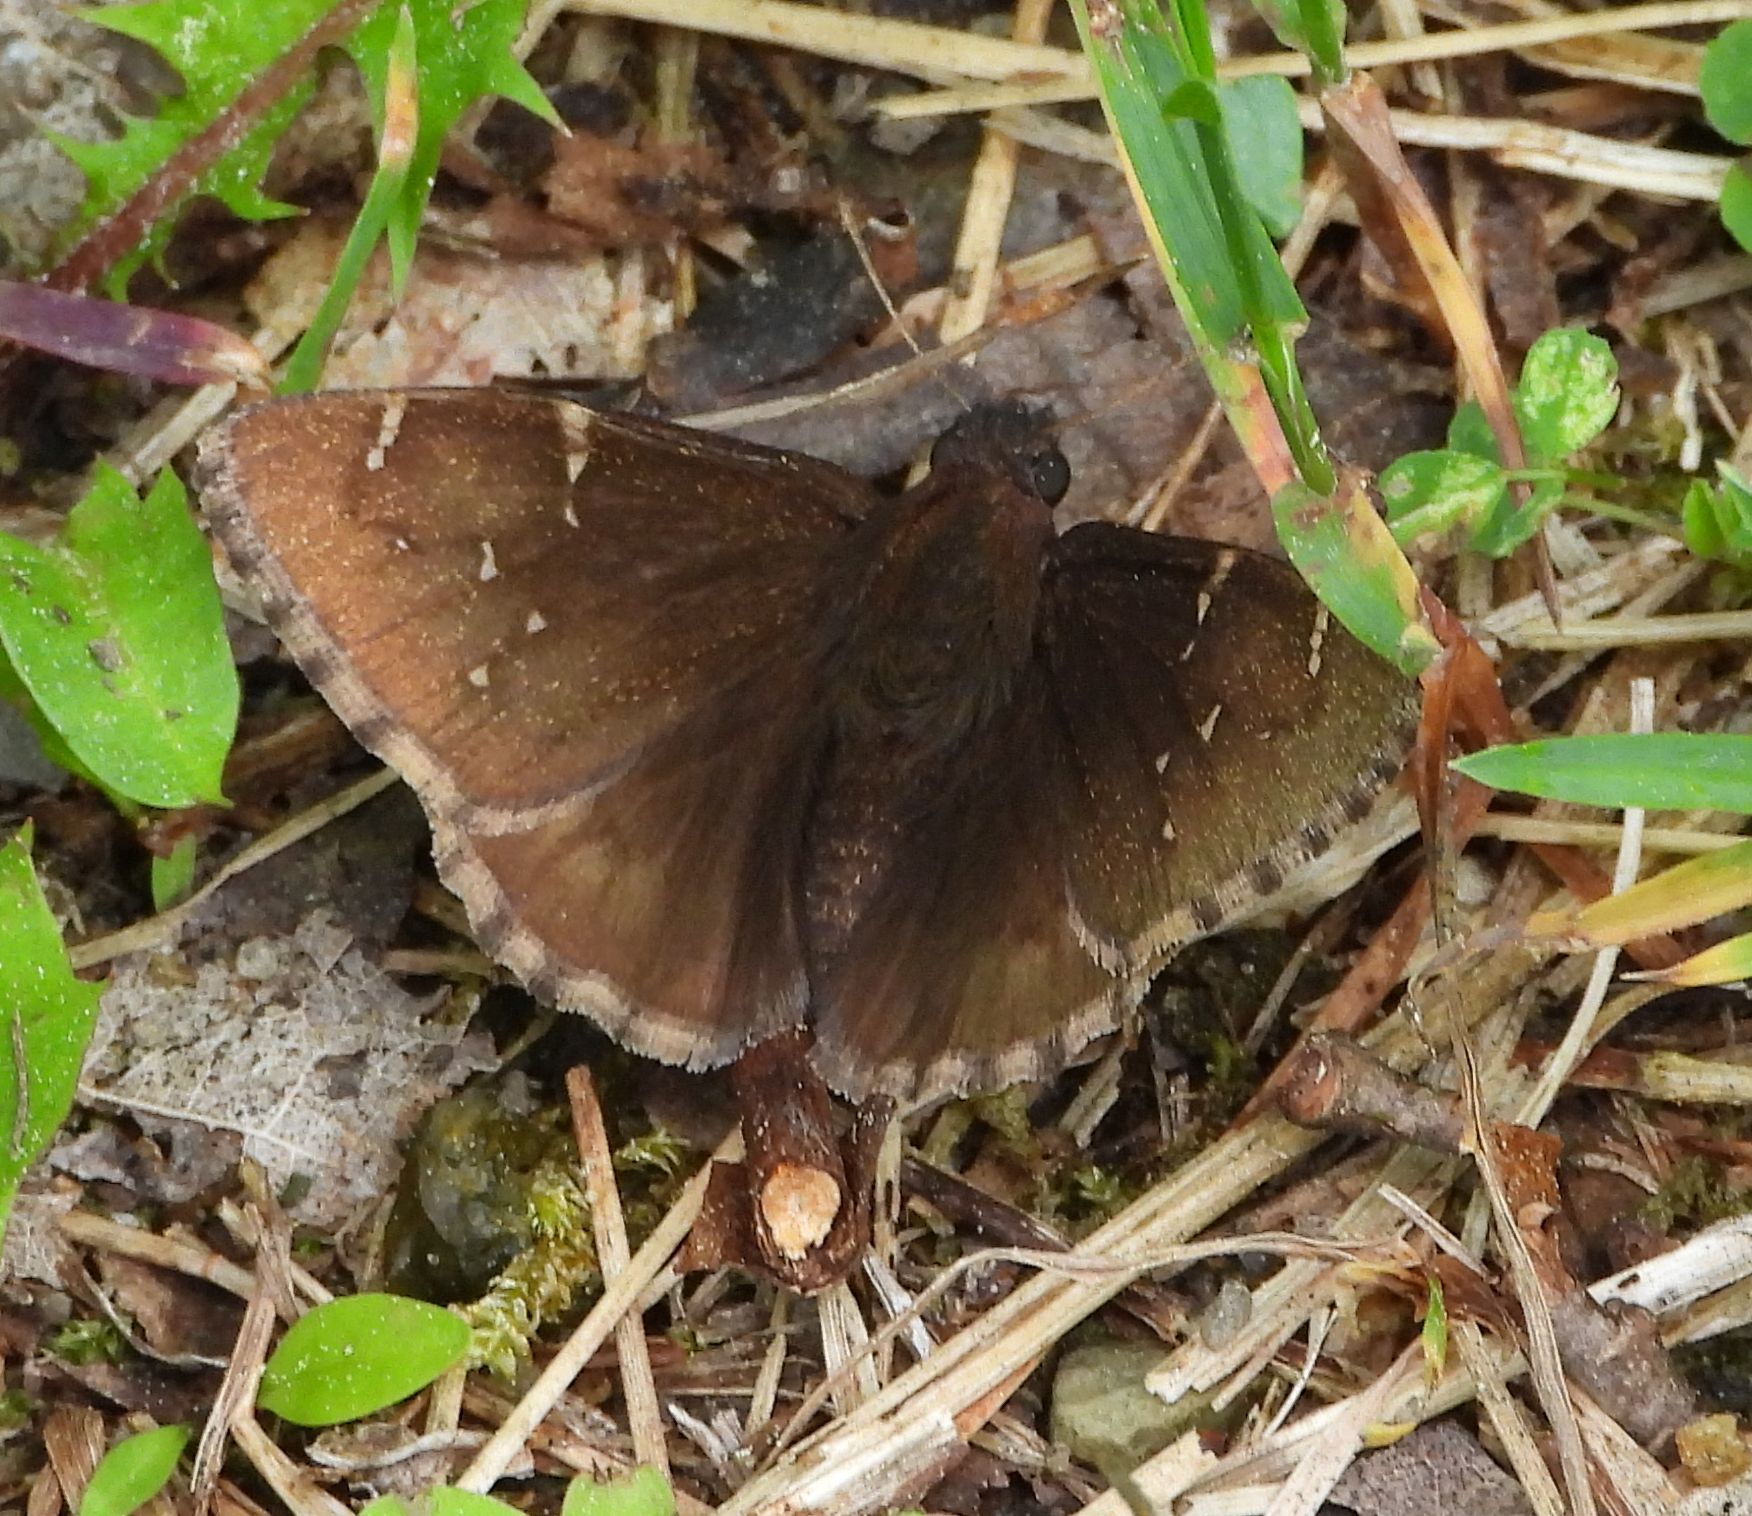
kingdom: Animalia
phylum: Arthropoda
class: Insecta
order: Lepidoptera
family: Hesperiidae
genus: Thorybes
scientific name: Thorybes pylades
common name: Northern cloudywing
